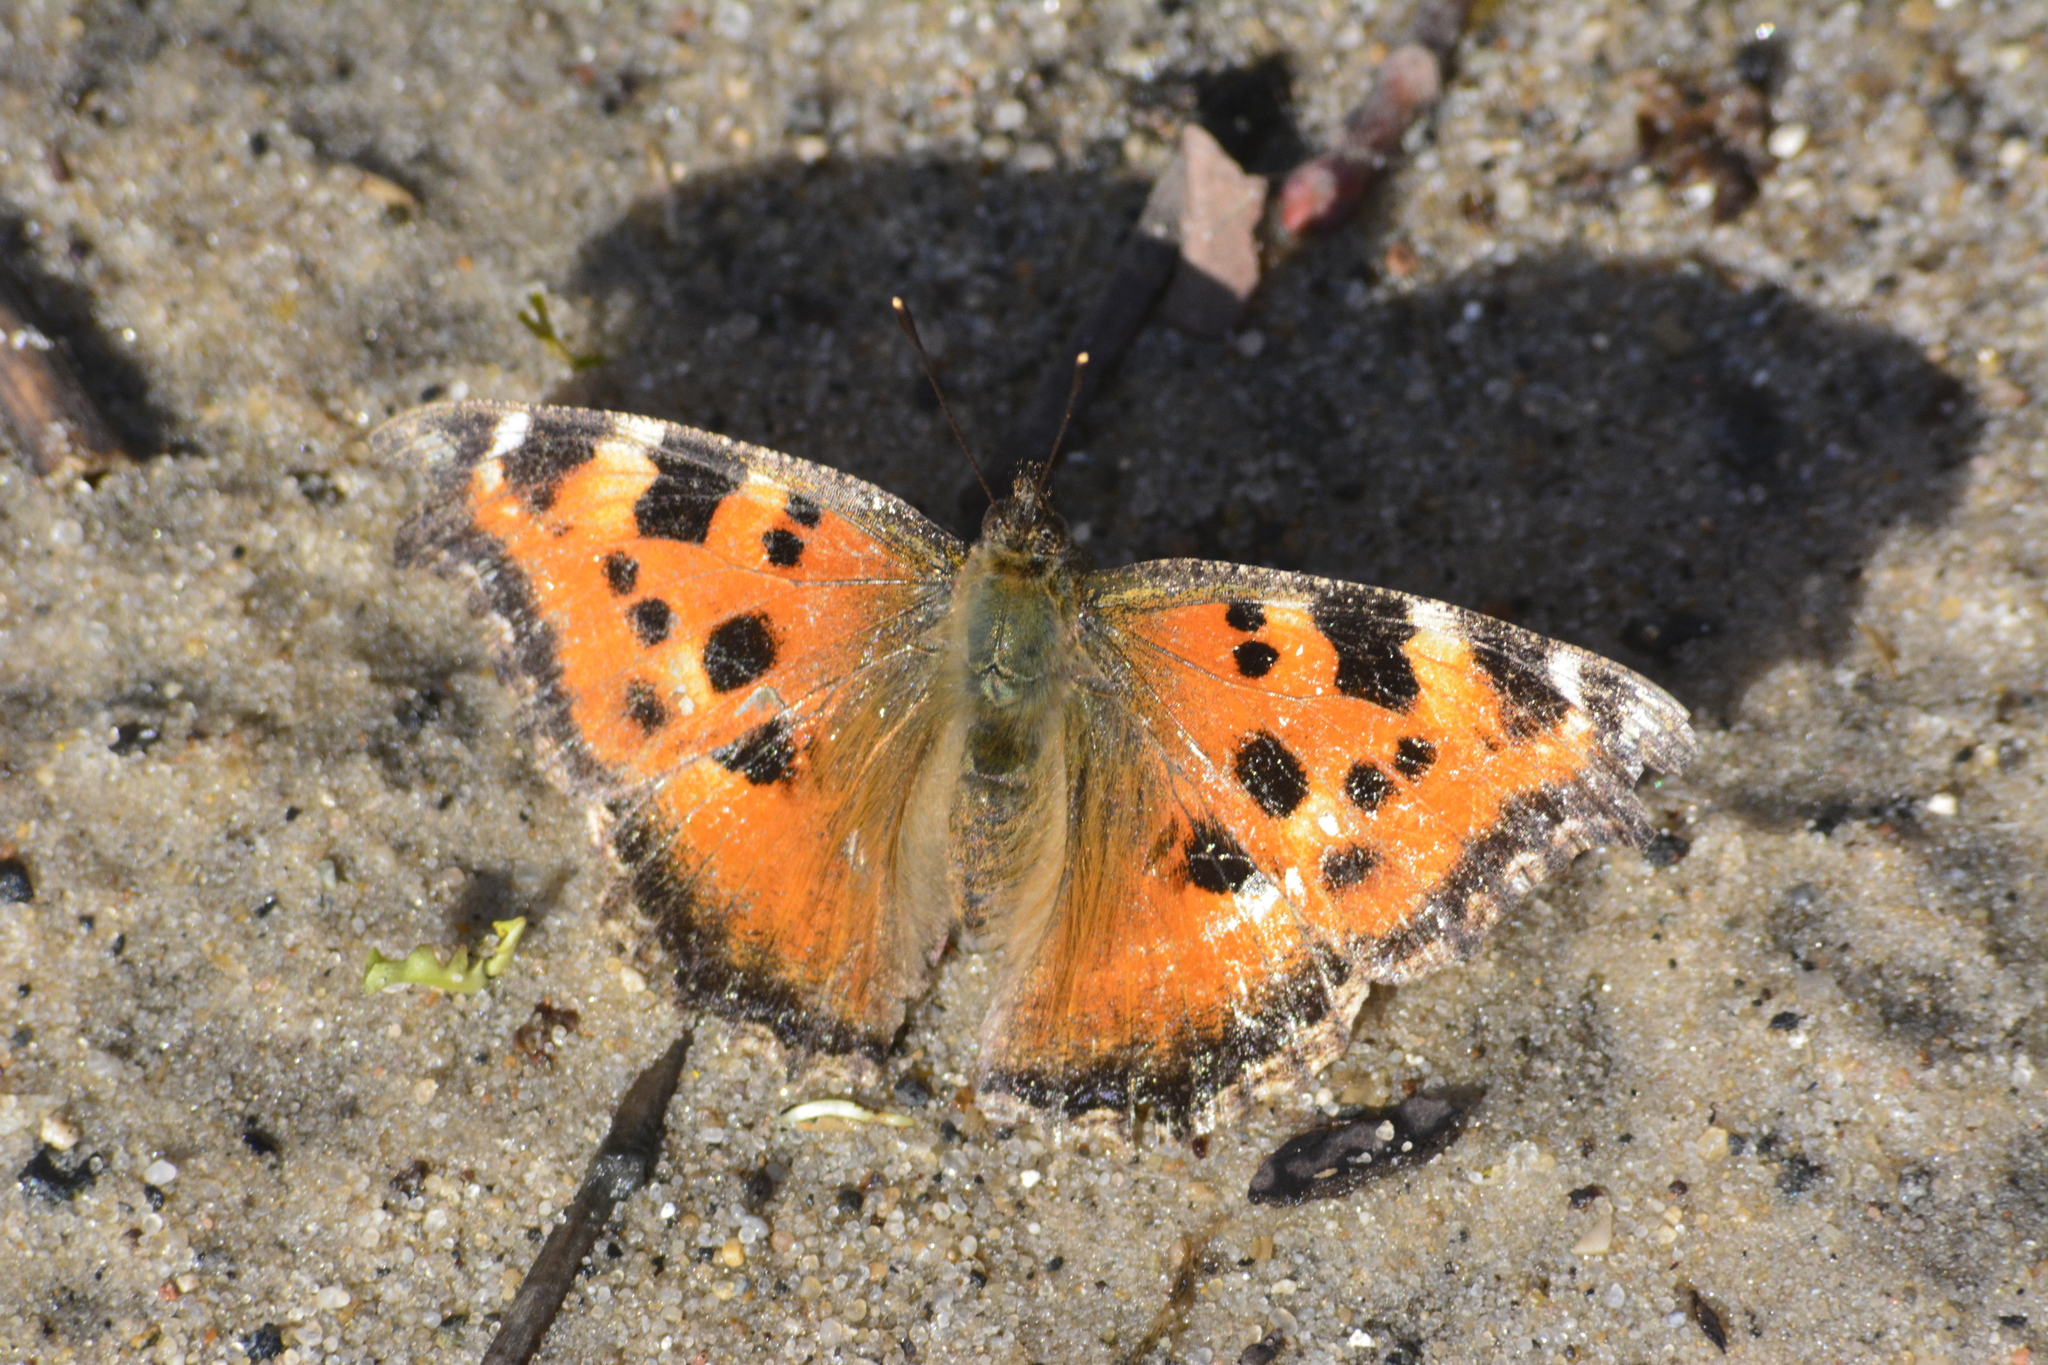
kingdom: Animalia
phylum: Arthropoda
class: Insecta
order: Lepidoptera
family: Nymphalidae
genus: Nymphalis
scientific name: Nymphalis xanthomelas
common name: Scarce tortoiseshell
